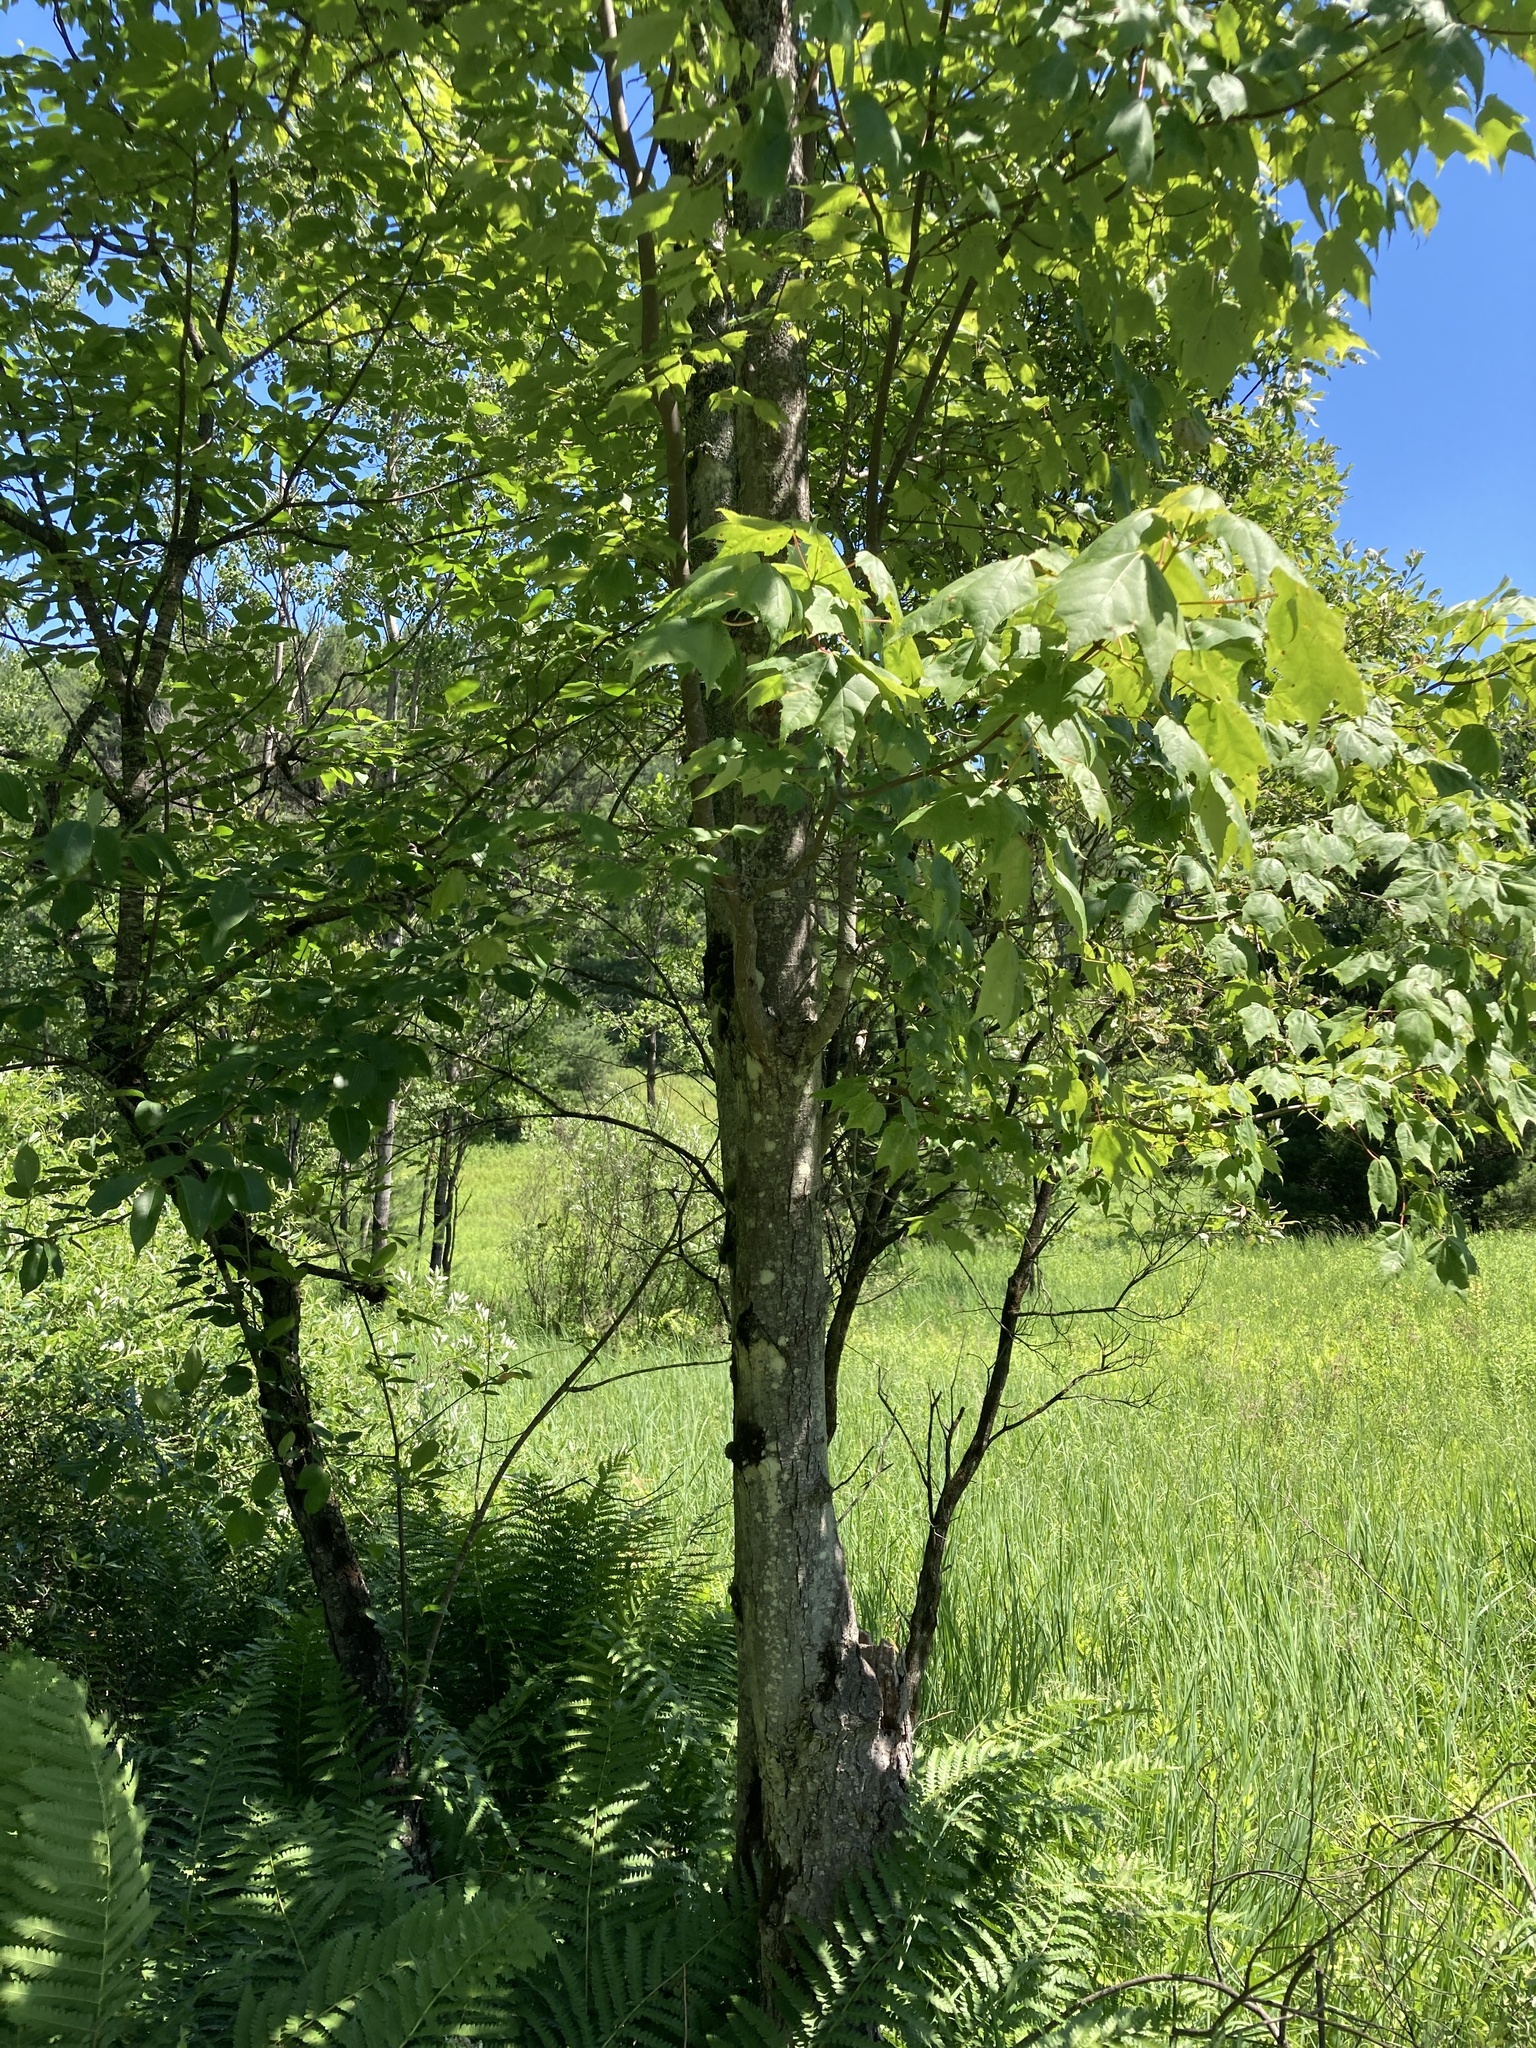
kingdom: Plantae
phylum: Tracheophyta
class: Magnoliopsida
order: Sapindales
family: Sapindaceae
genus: Acer
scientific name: Acer rubrum
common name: Red maple
